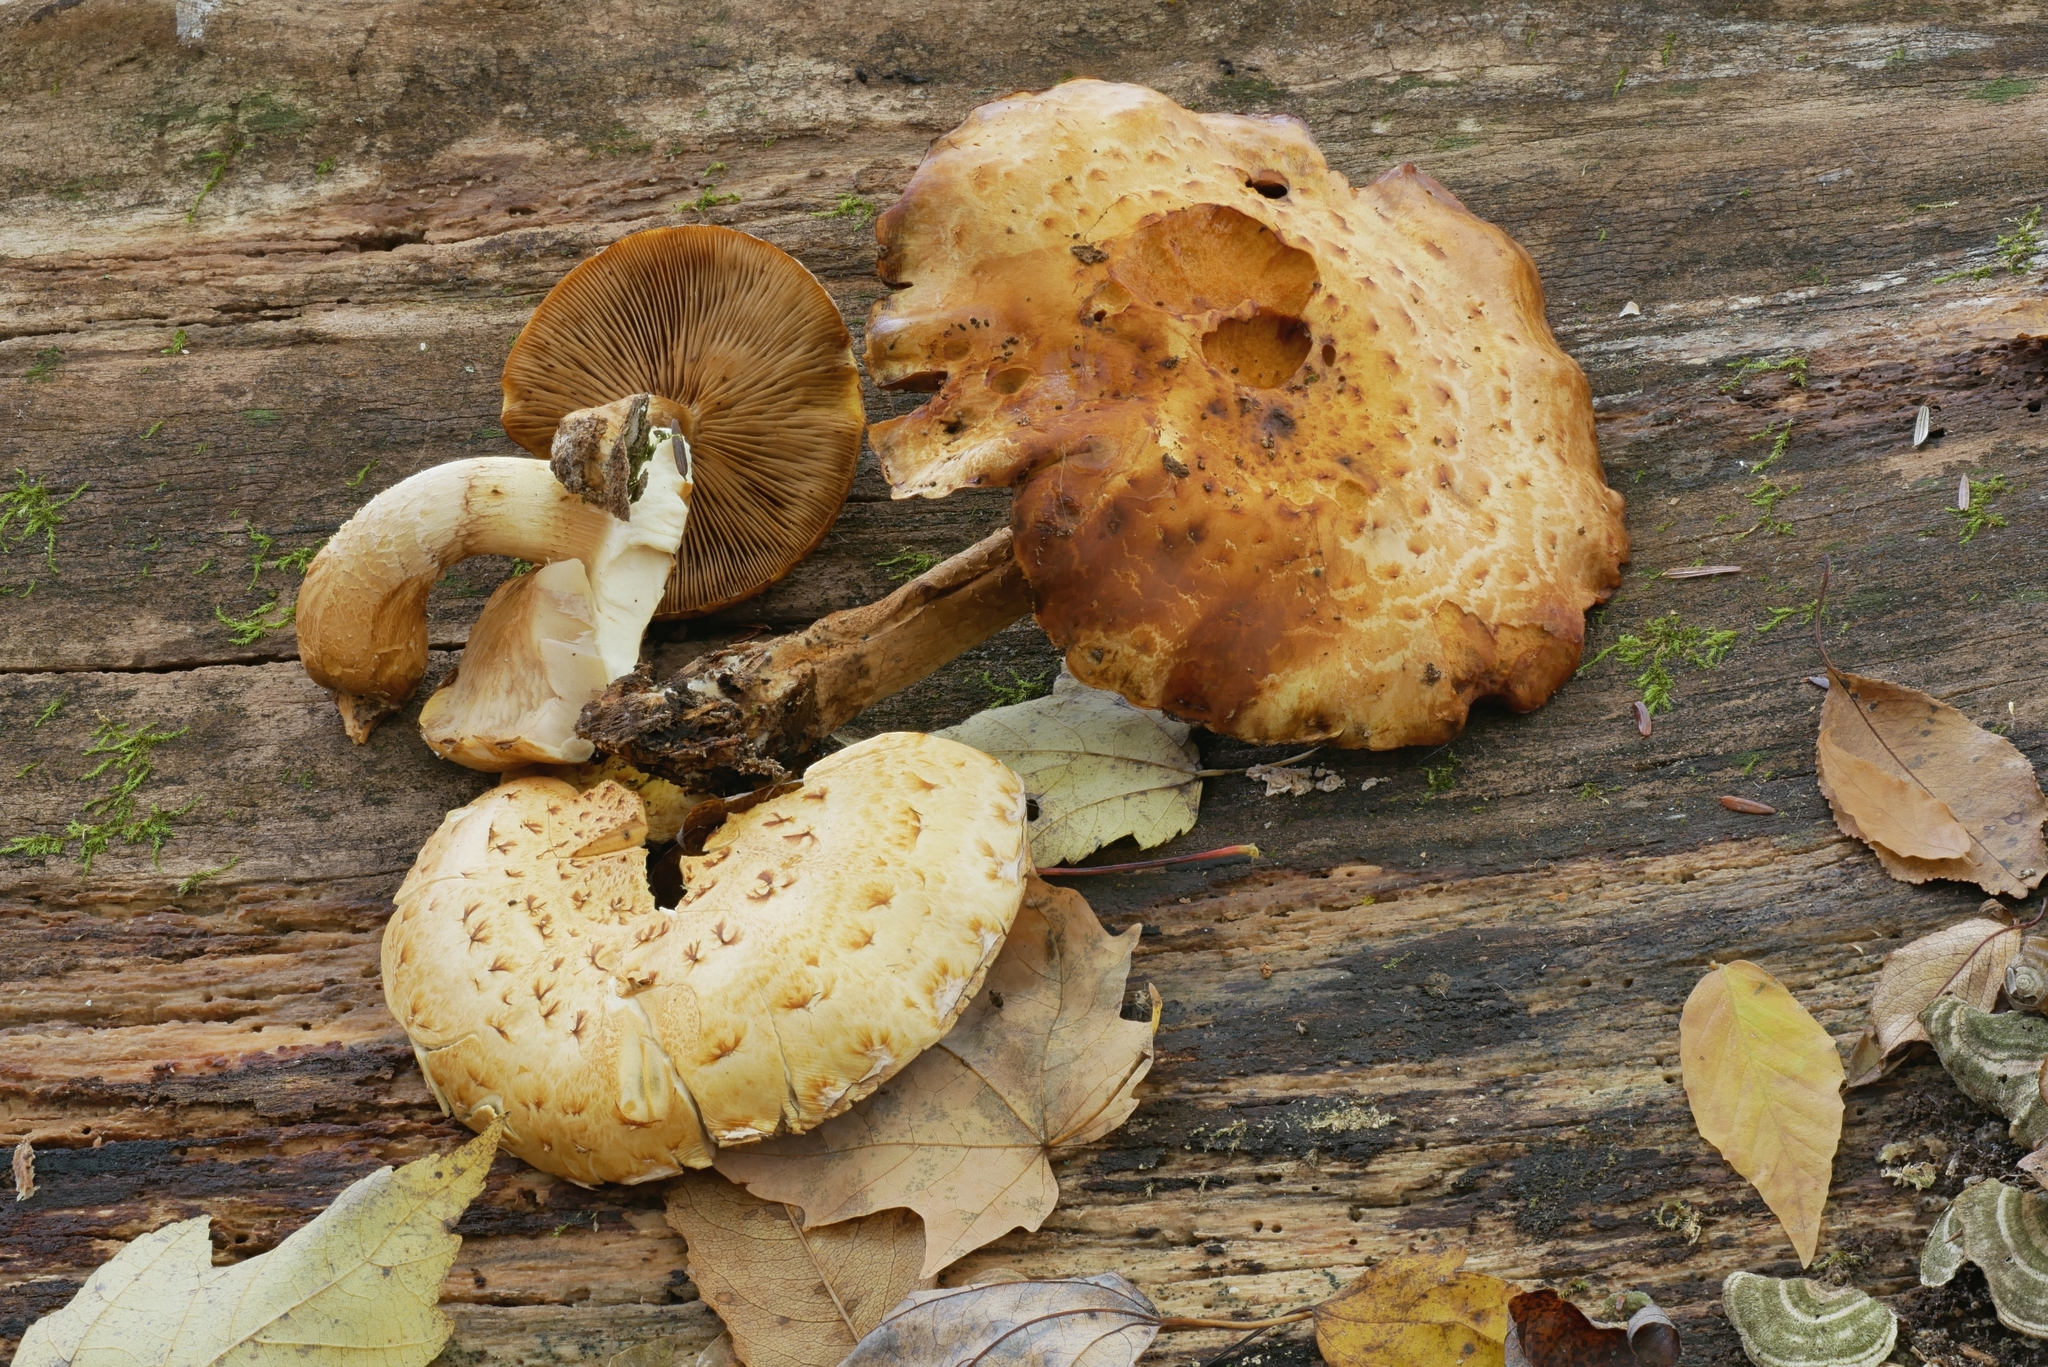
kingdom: Fungi
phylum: Basidiomycota
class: Agaricomycetes
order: Agaricales
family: Strophariaceae
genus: Pholiota
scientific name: Pholiota limonella
